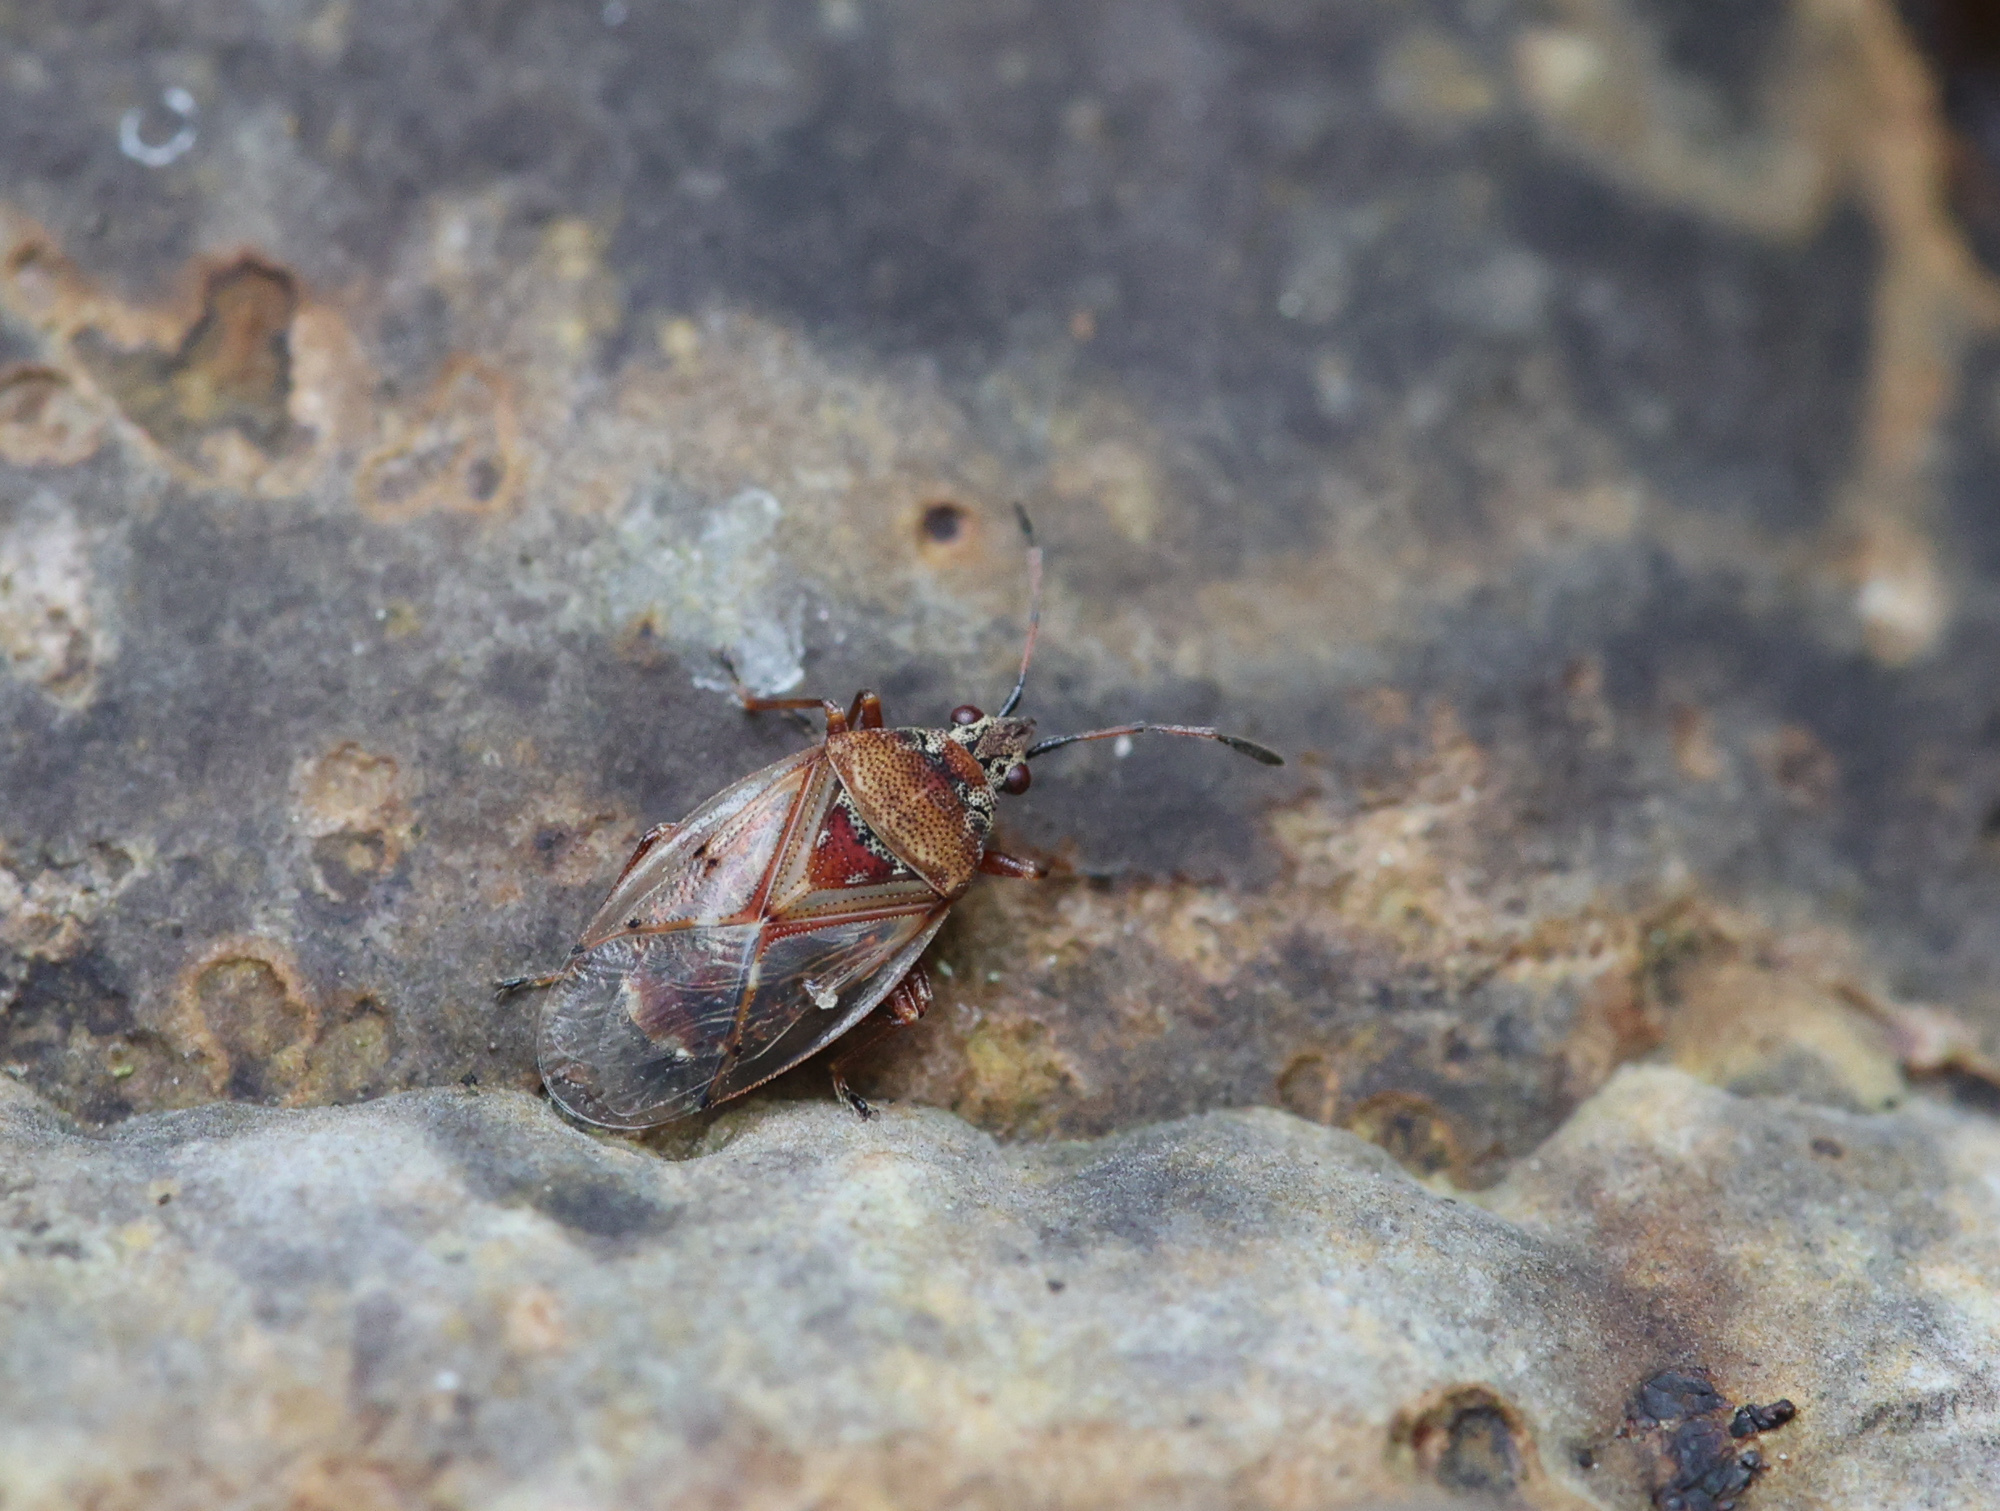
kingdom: Animalia
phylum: Arthropoda
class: Insecta
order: Hemiptera
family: Lygaeidae
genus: Kleidocerys
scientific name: Kleidocerys resedae
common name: Birch catkin bug
